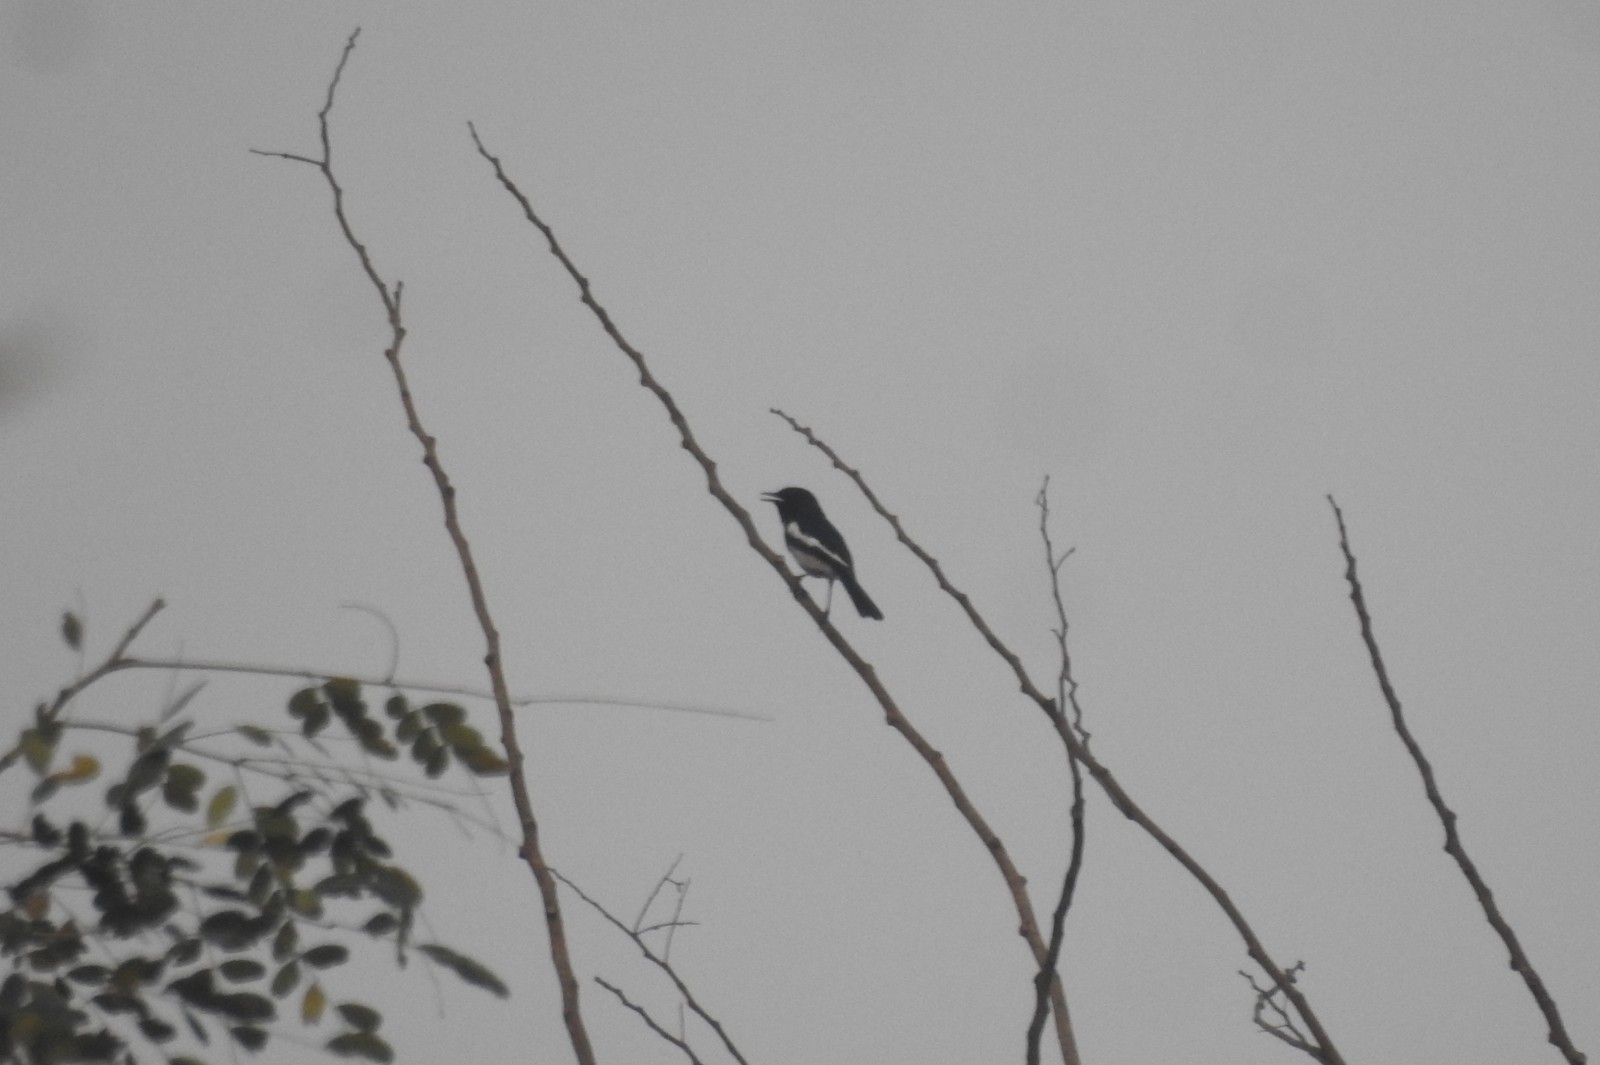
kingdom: Animalia
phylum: Chordata
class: Aves
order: Passeriformes
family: Muscicapidae
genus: Copsychus
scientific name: Copsychus saularis
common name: Oriental magpie-robin
